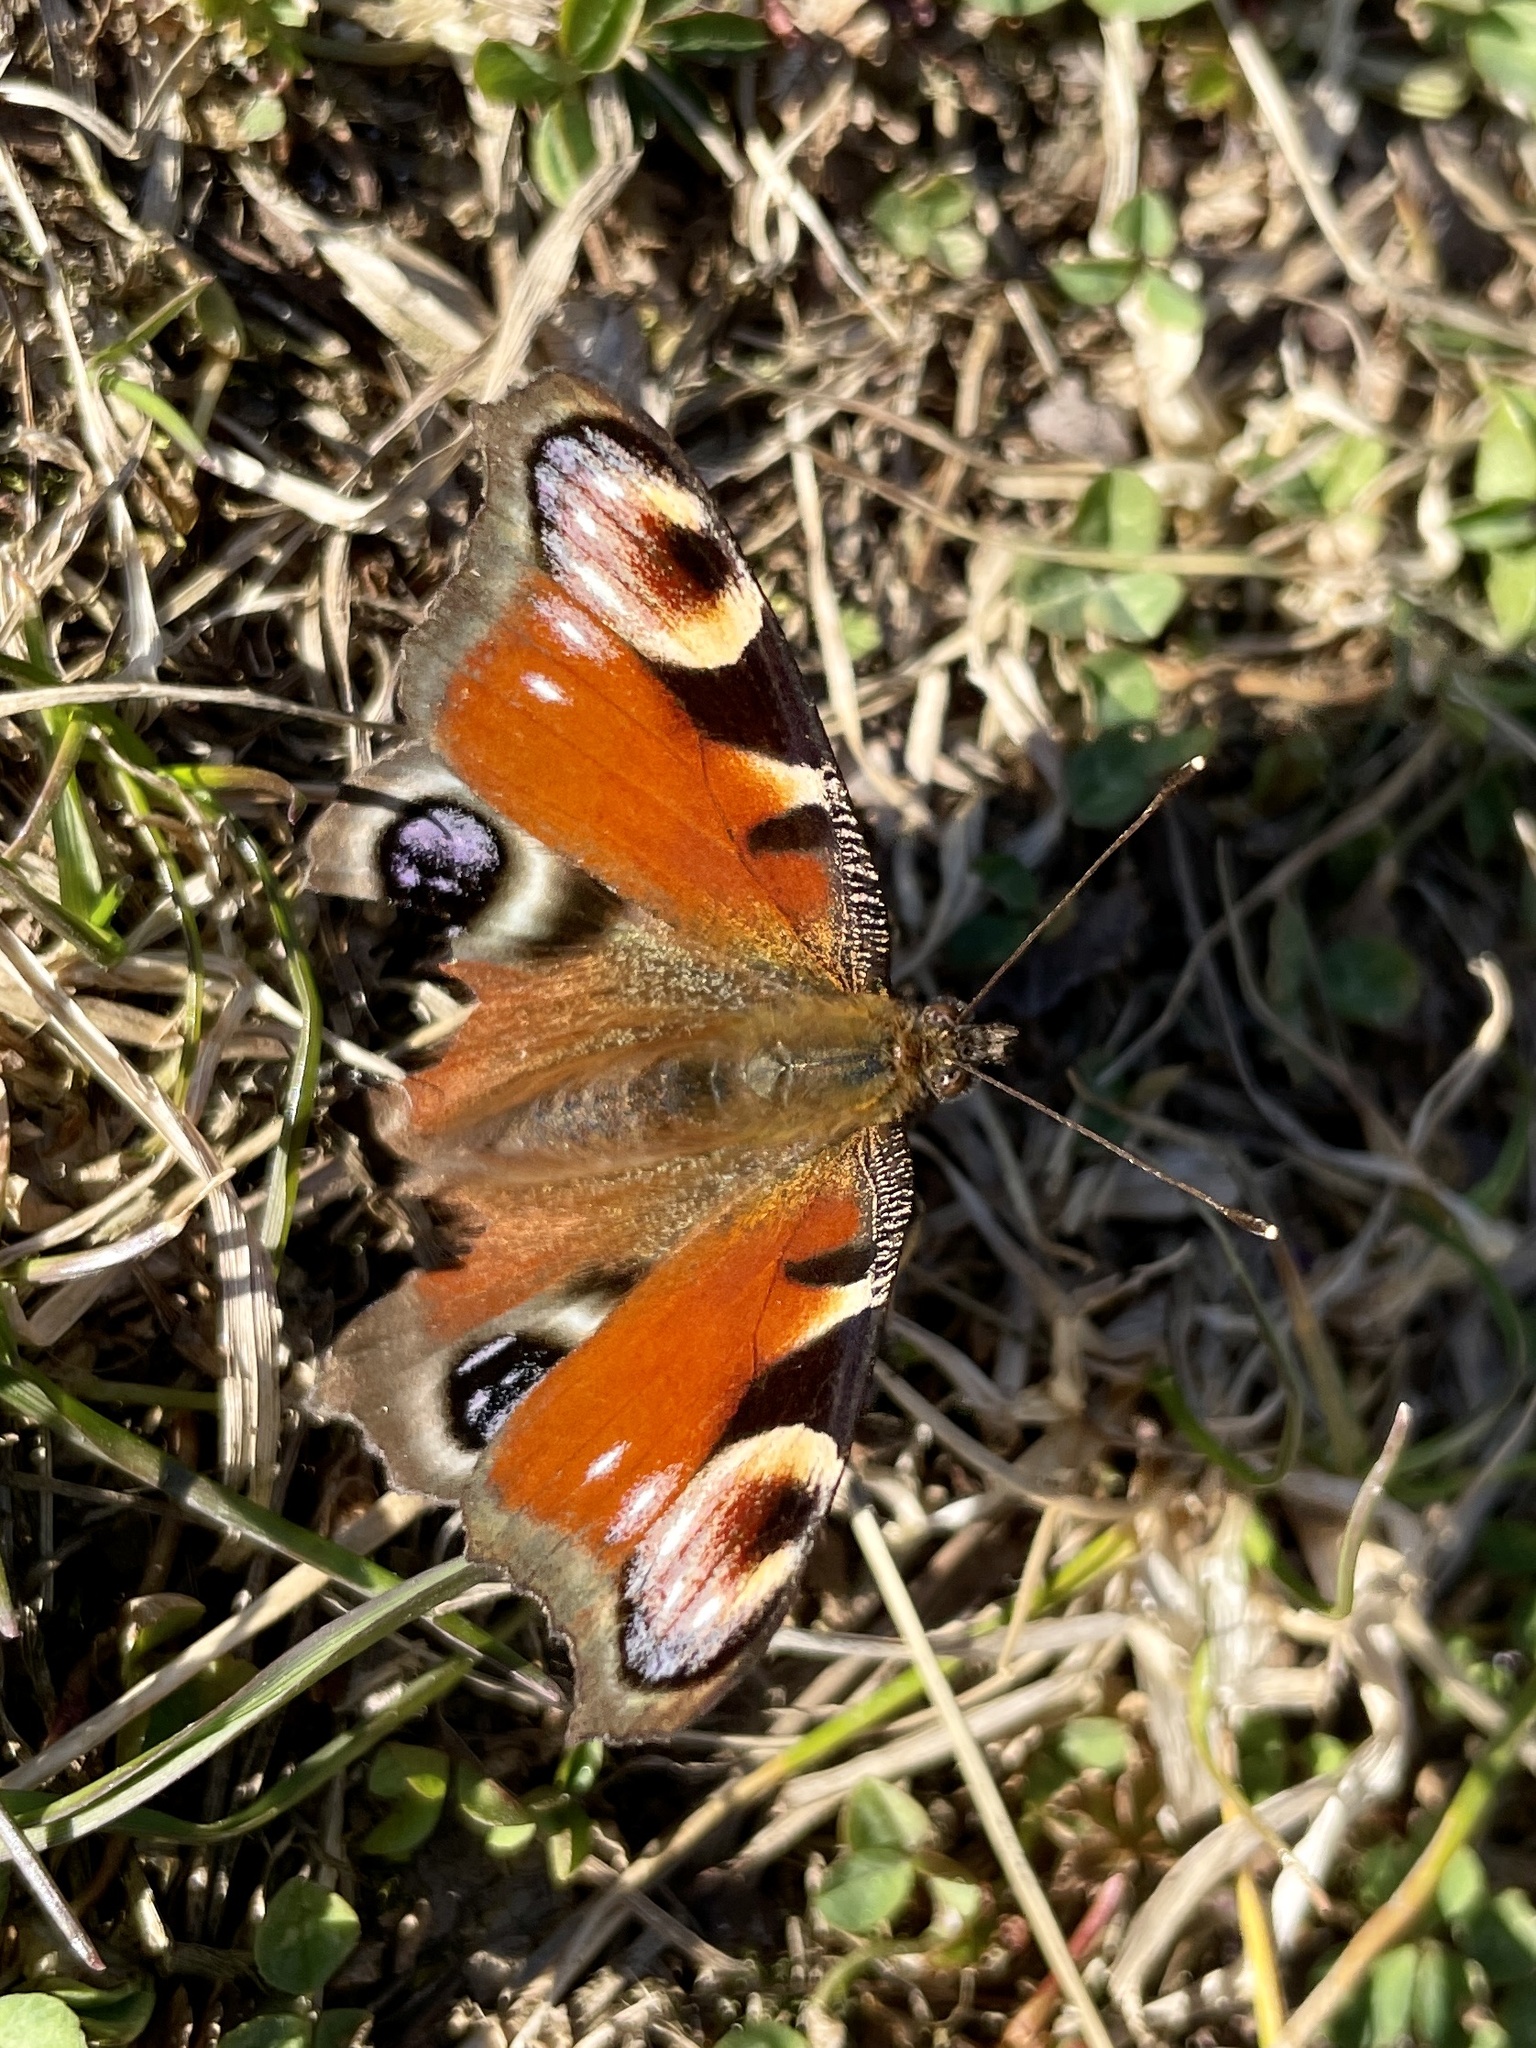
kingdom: Animalia
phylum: Arthropoda
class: Insecta
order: Lepidoptera
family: Nymphalidae
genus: Aglais
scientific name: Aglais io
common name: Peacock
